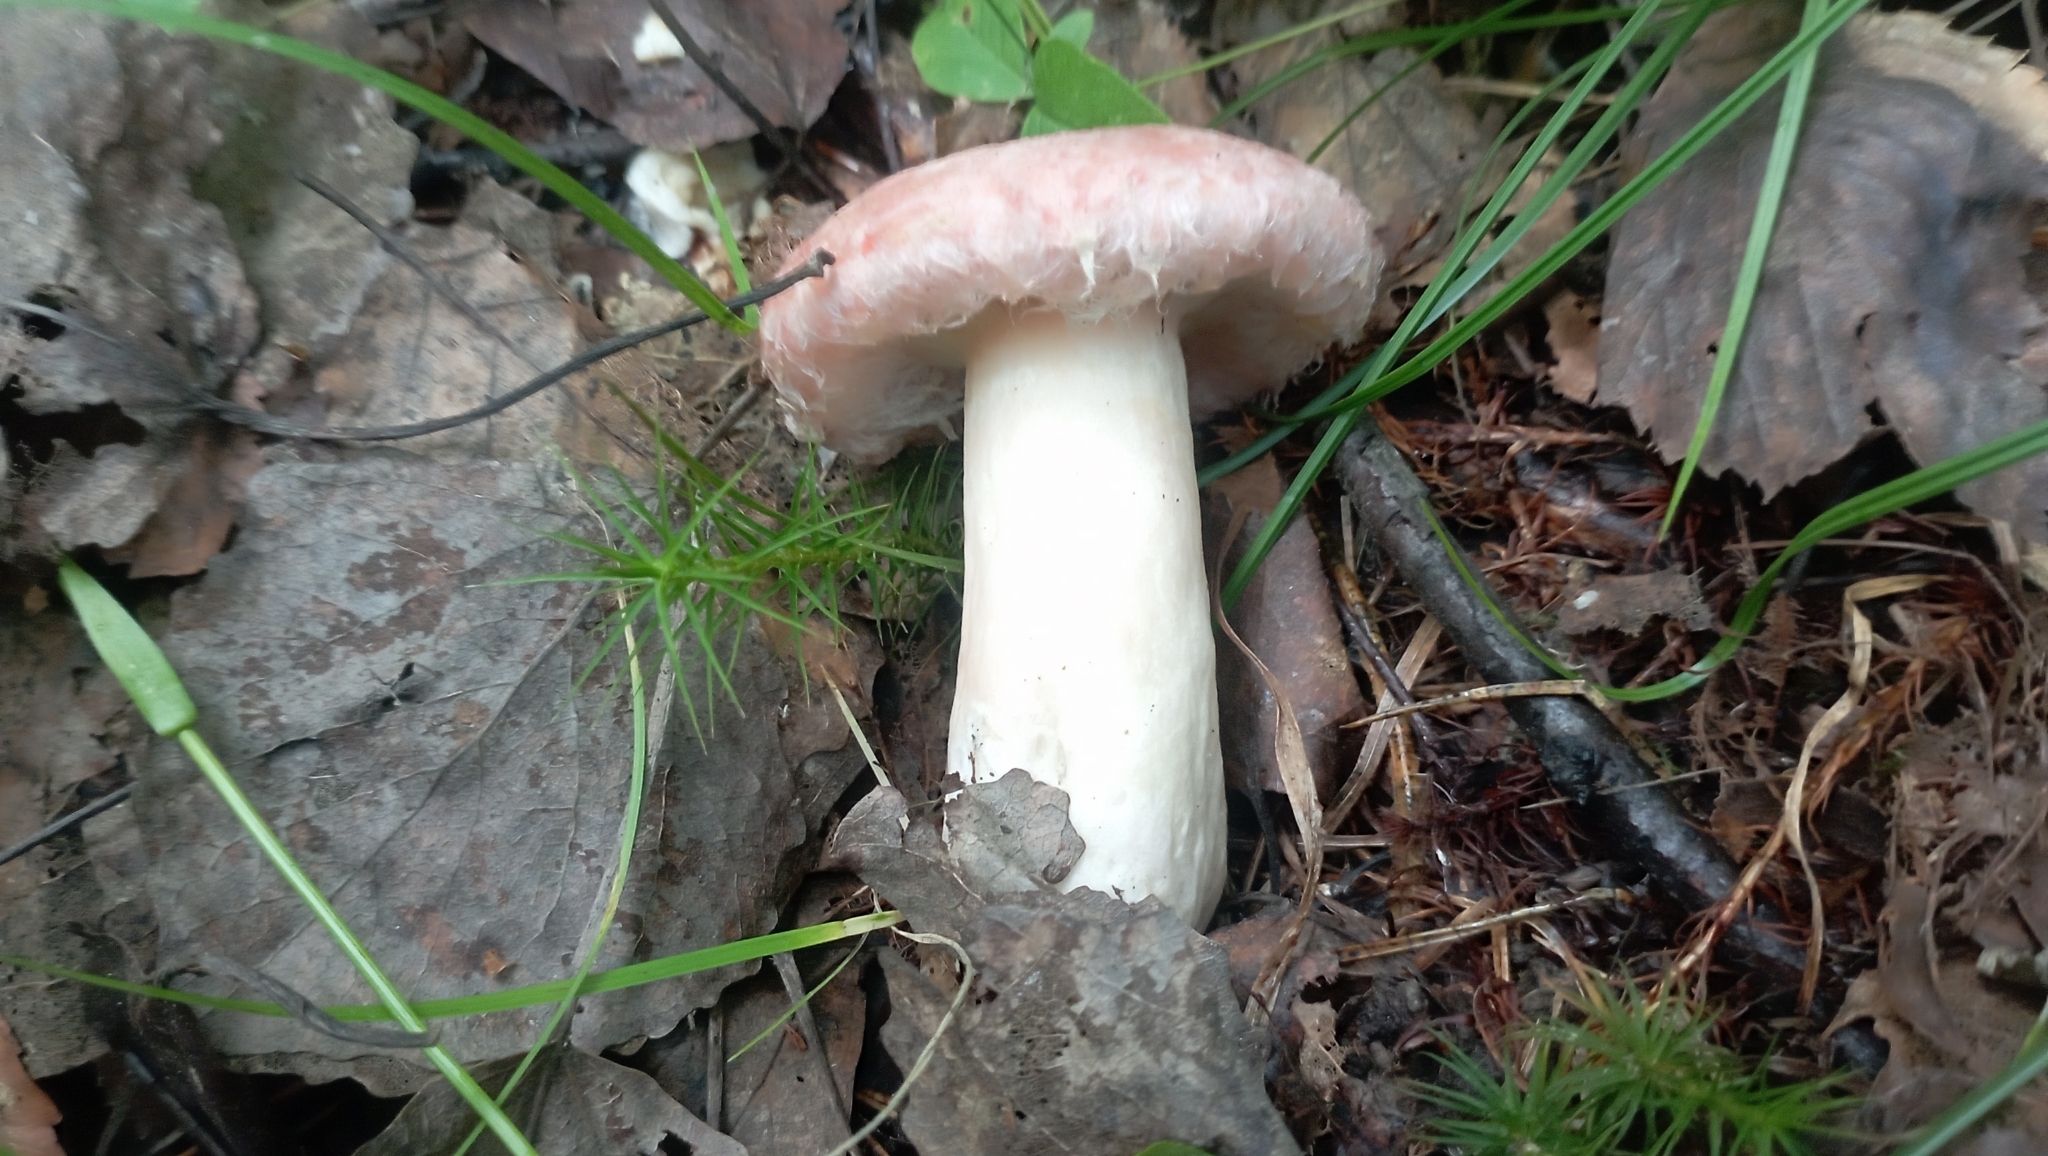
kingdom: Fungi
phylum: Basidiomycota
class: Agaricomycetes
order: Russulales
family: Russulaceae
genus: Lactarius
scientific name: Lactarius torminosus
